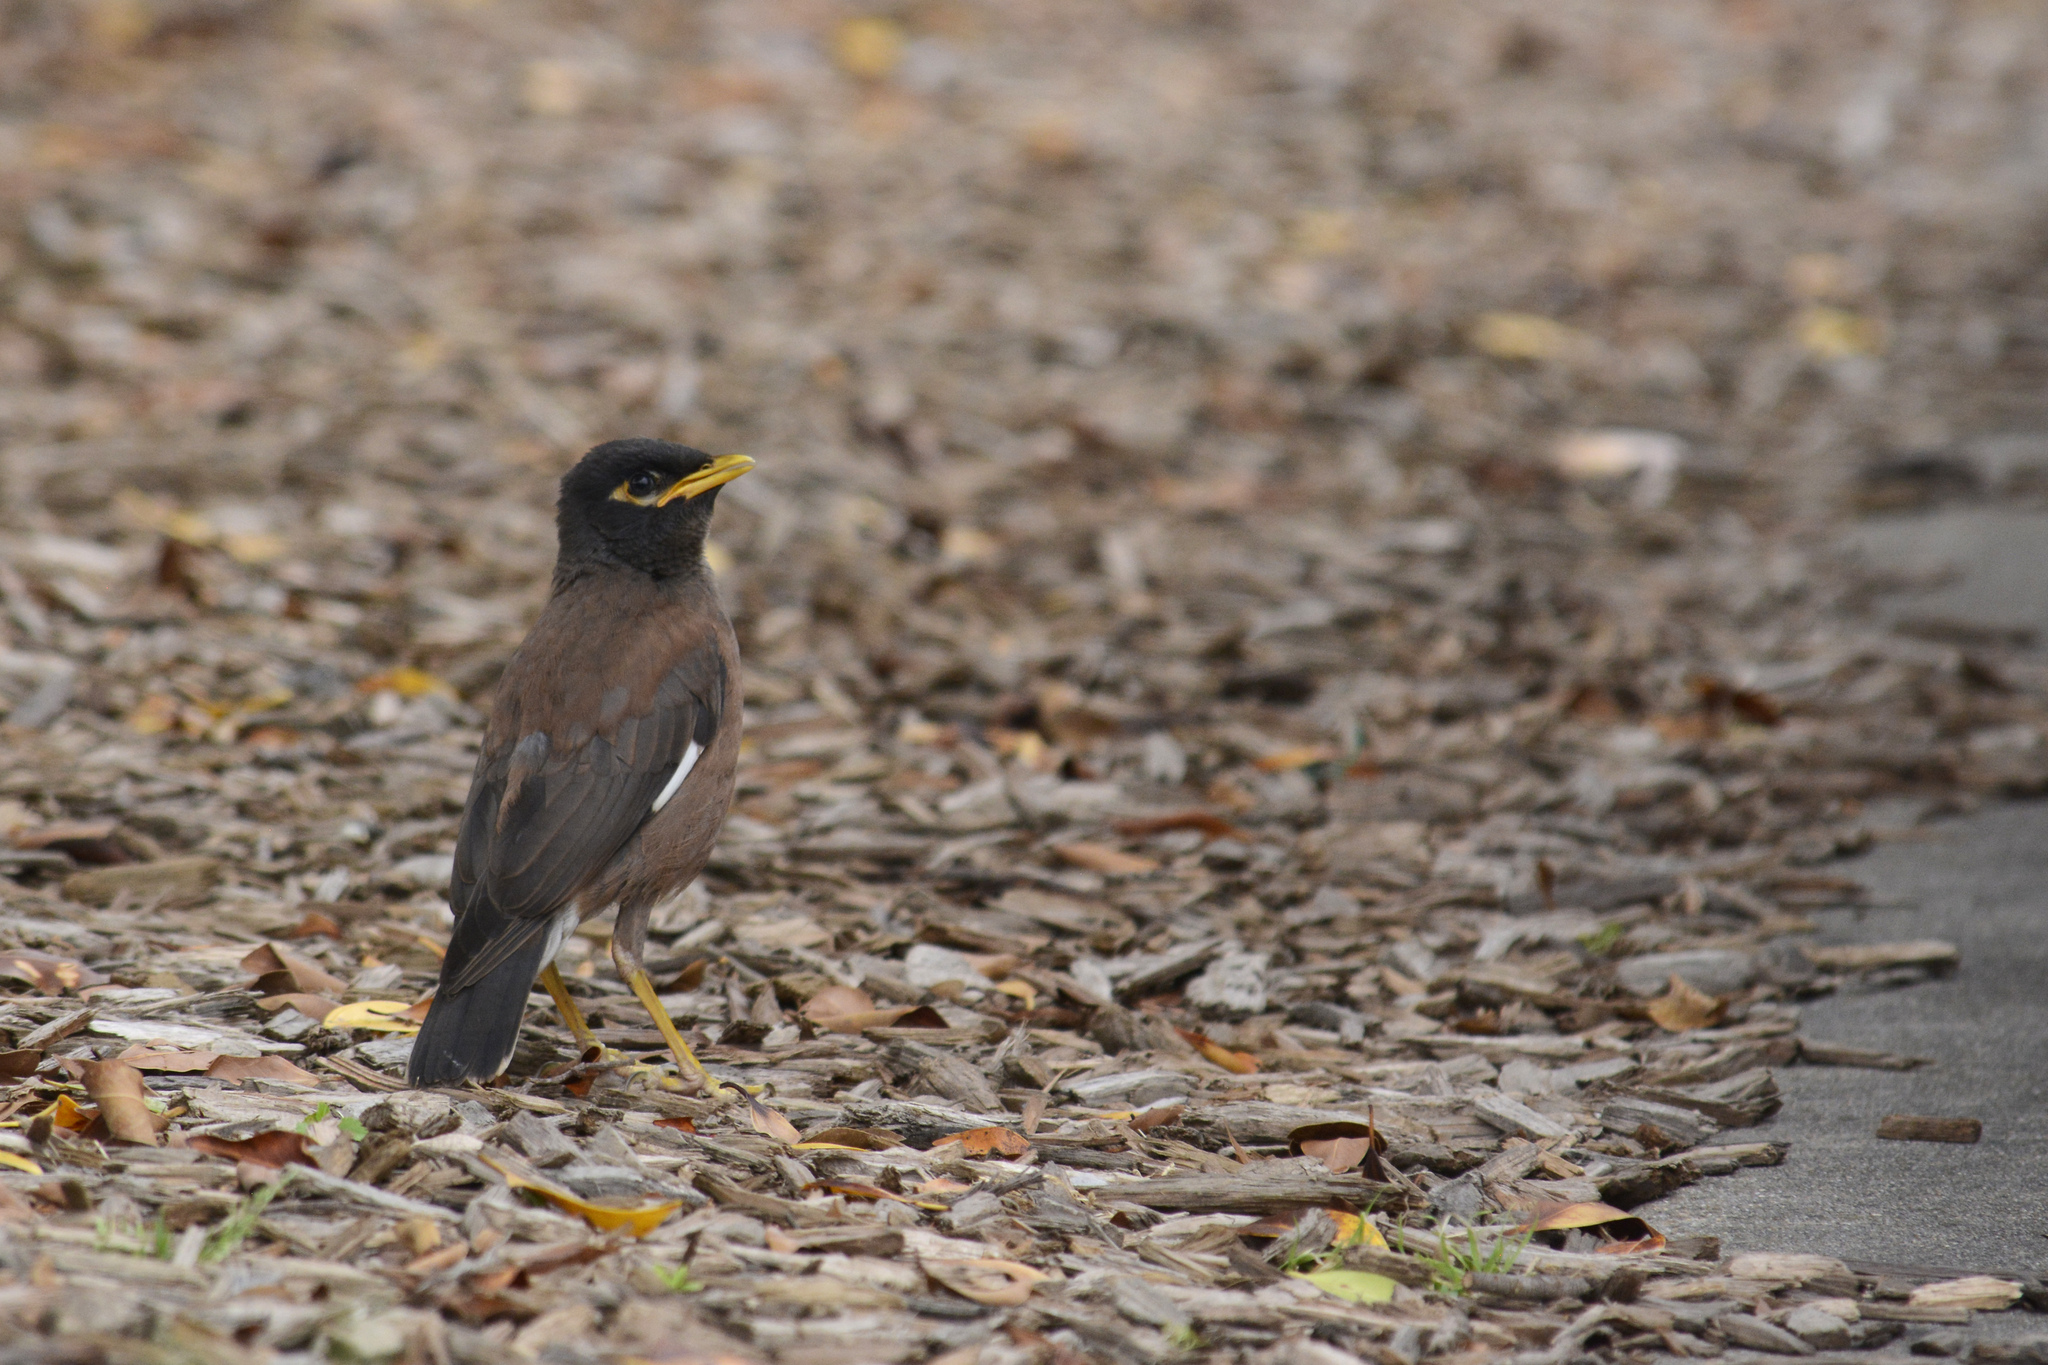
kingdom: Animalia
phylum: Chordata
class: Aves
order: Passeriformes
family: Sturnidae
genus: Acridotheres
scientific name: Acridotheres tristis
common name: Common myna
